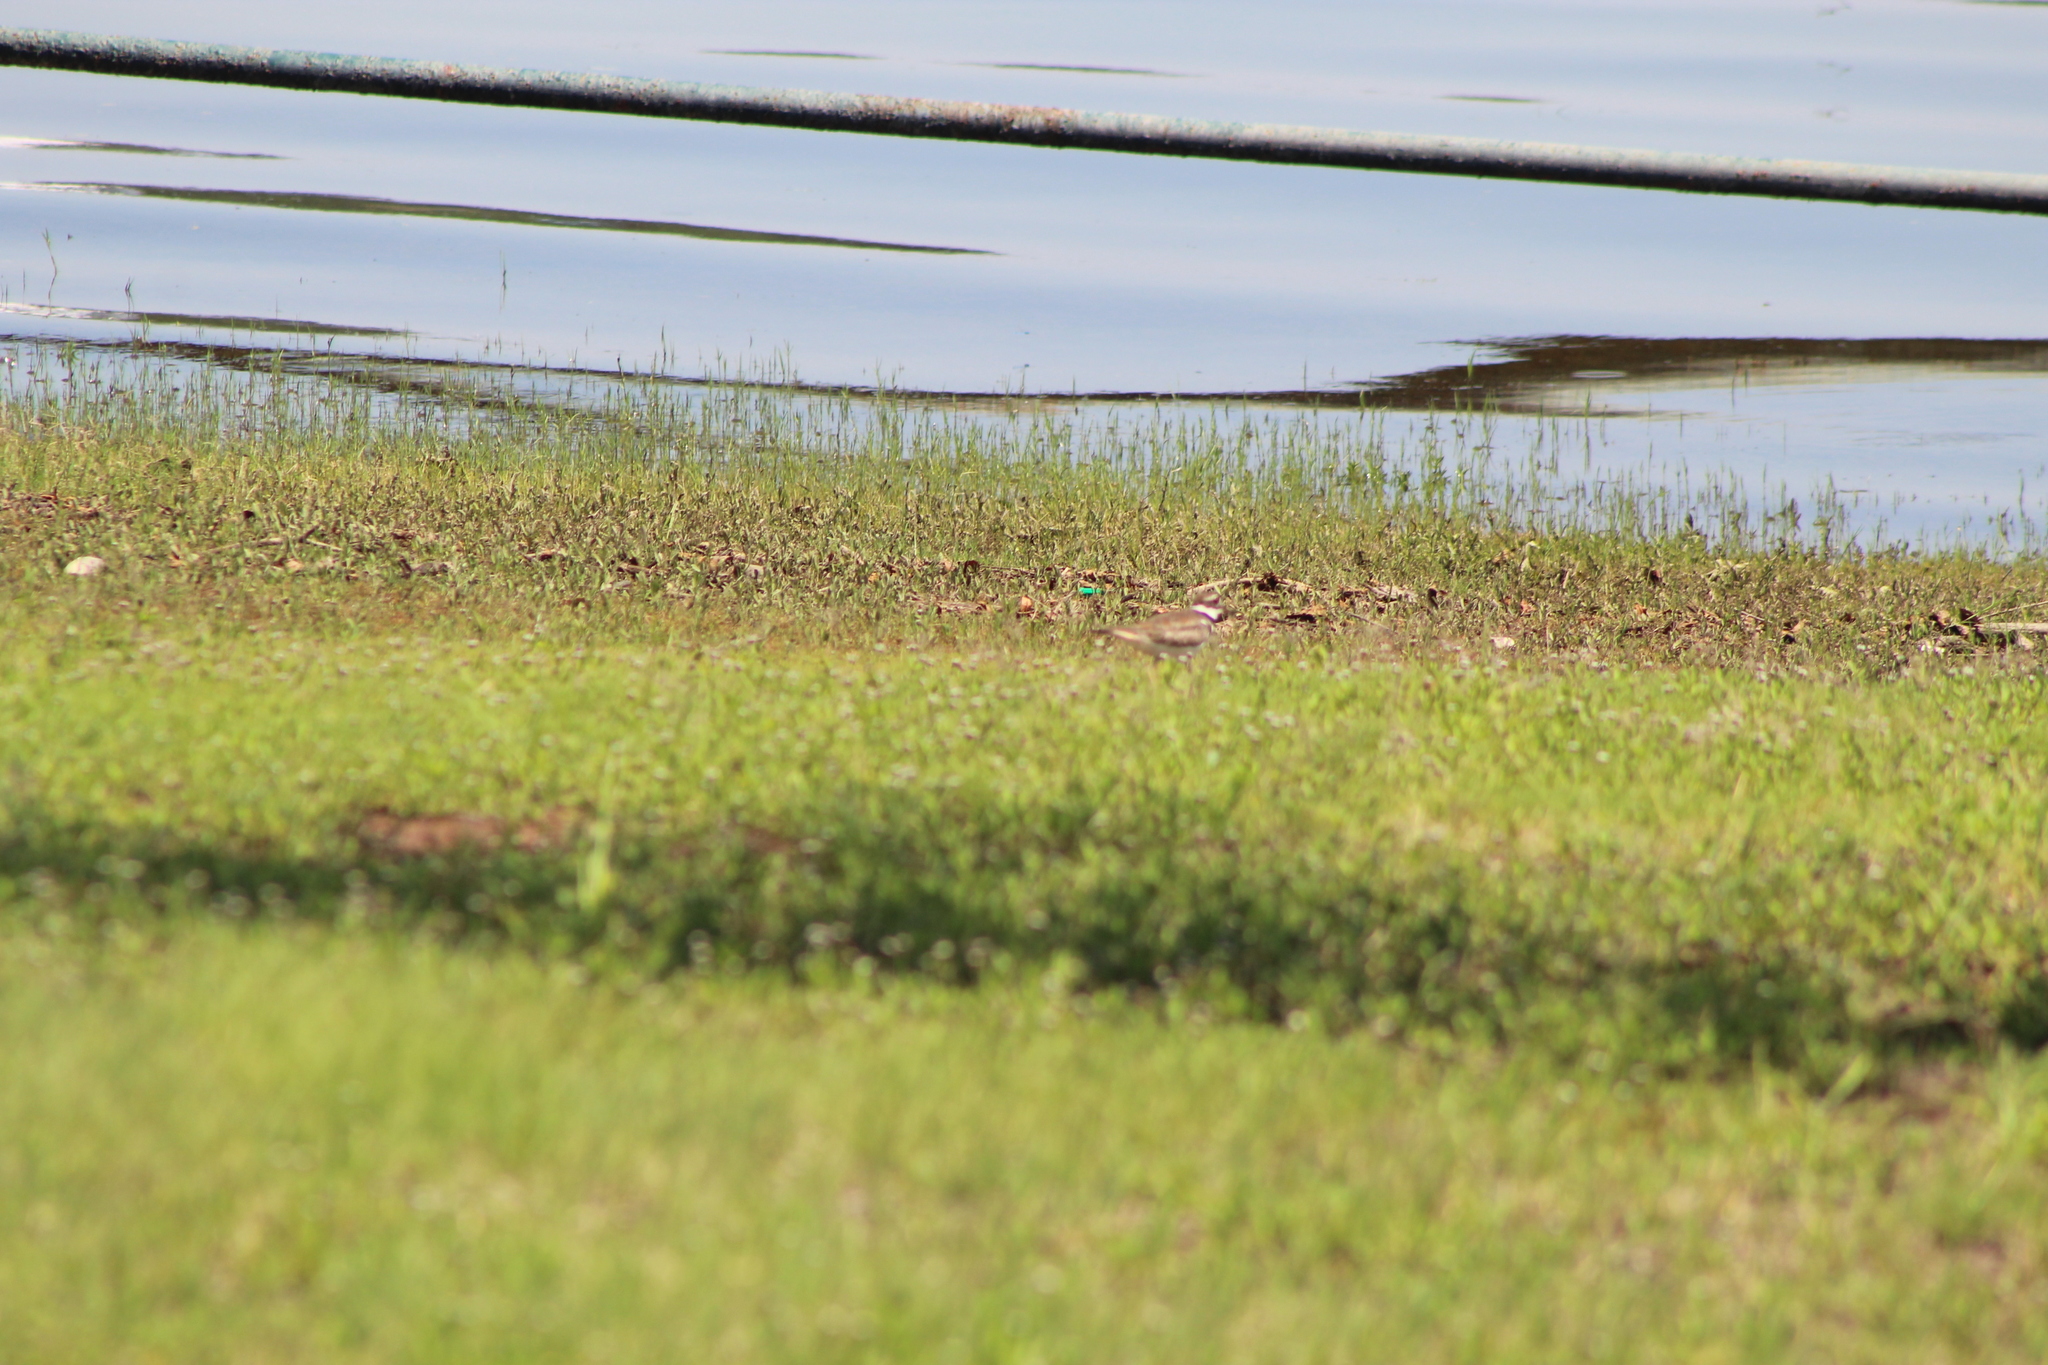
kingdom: Animalia
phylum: Chordata
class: Aves
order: Charadriiformes
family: Charadriidae
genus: Charadrius
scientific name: Charadrius vociferus
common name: Killdeer
